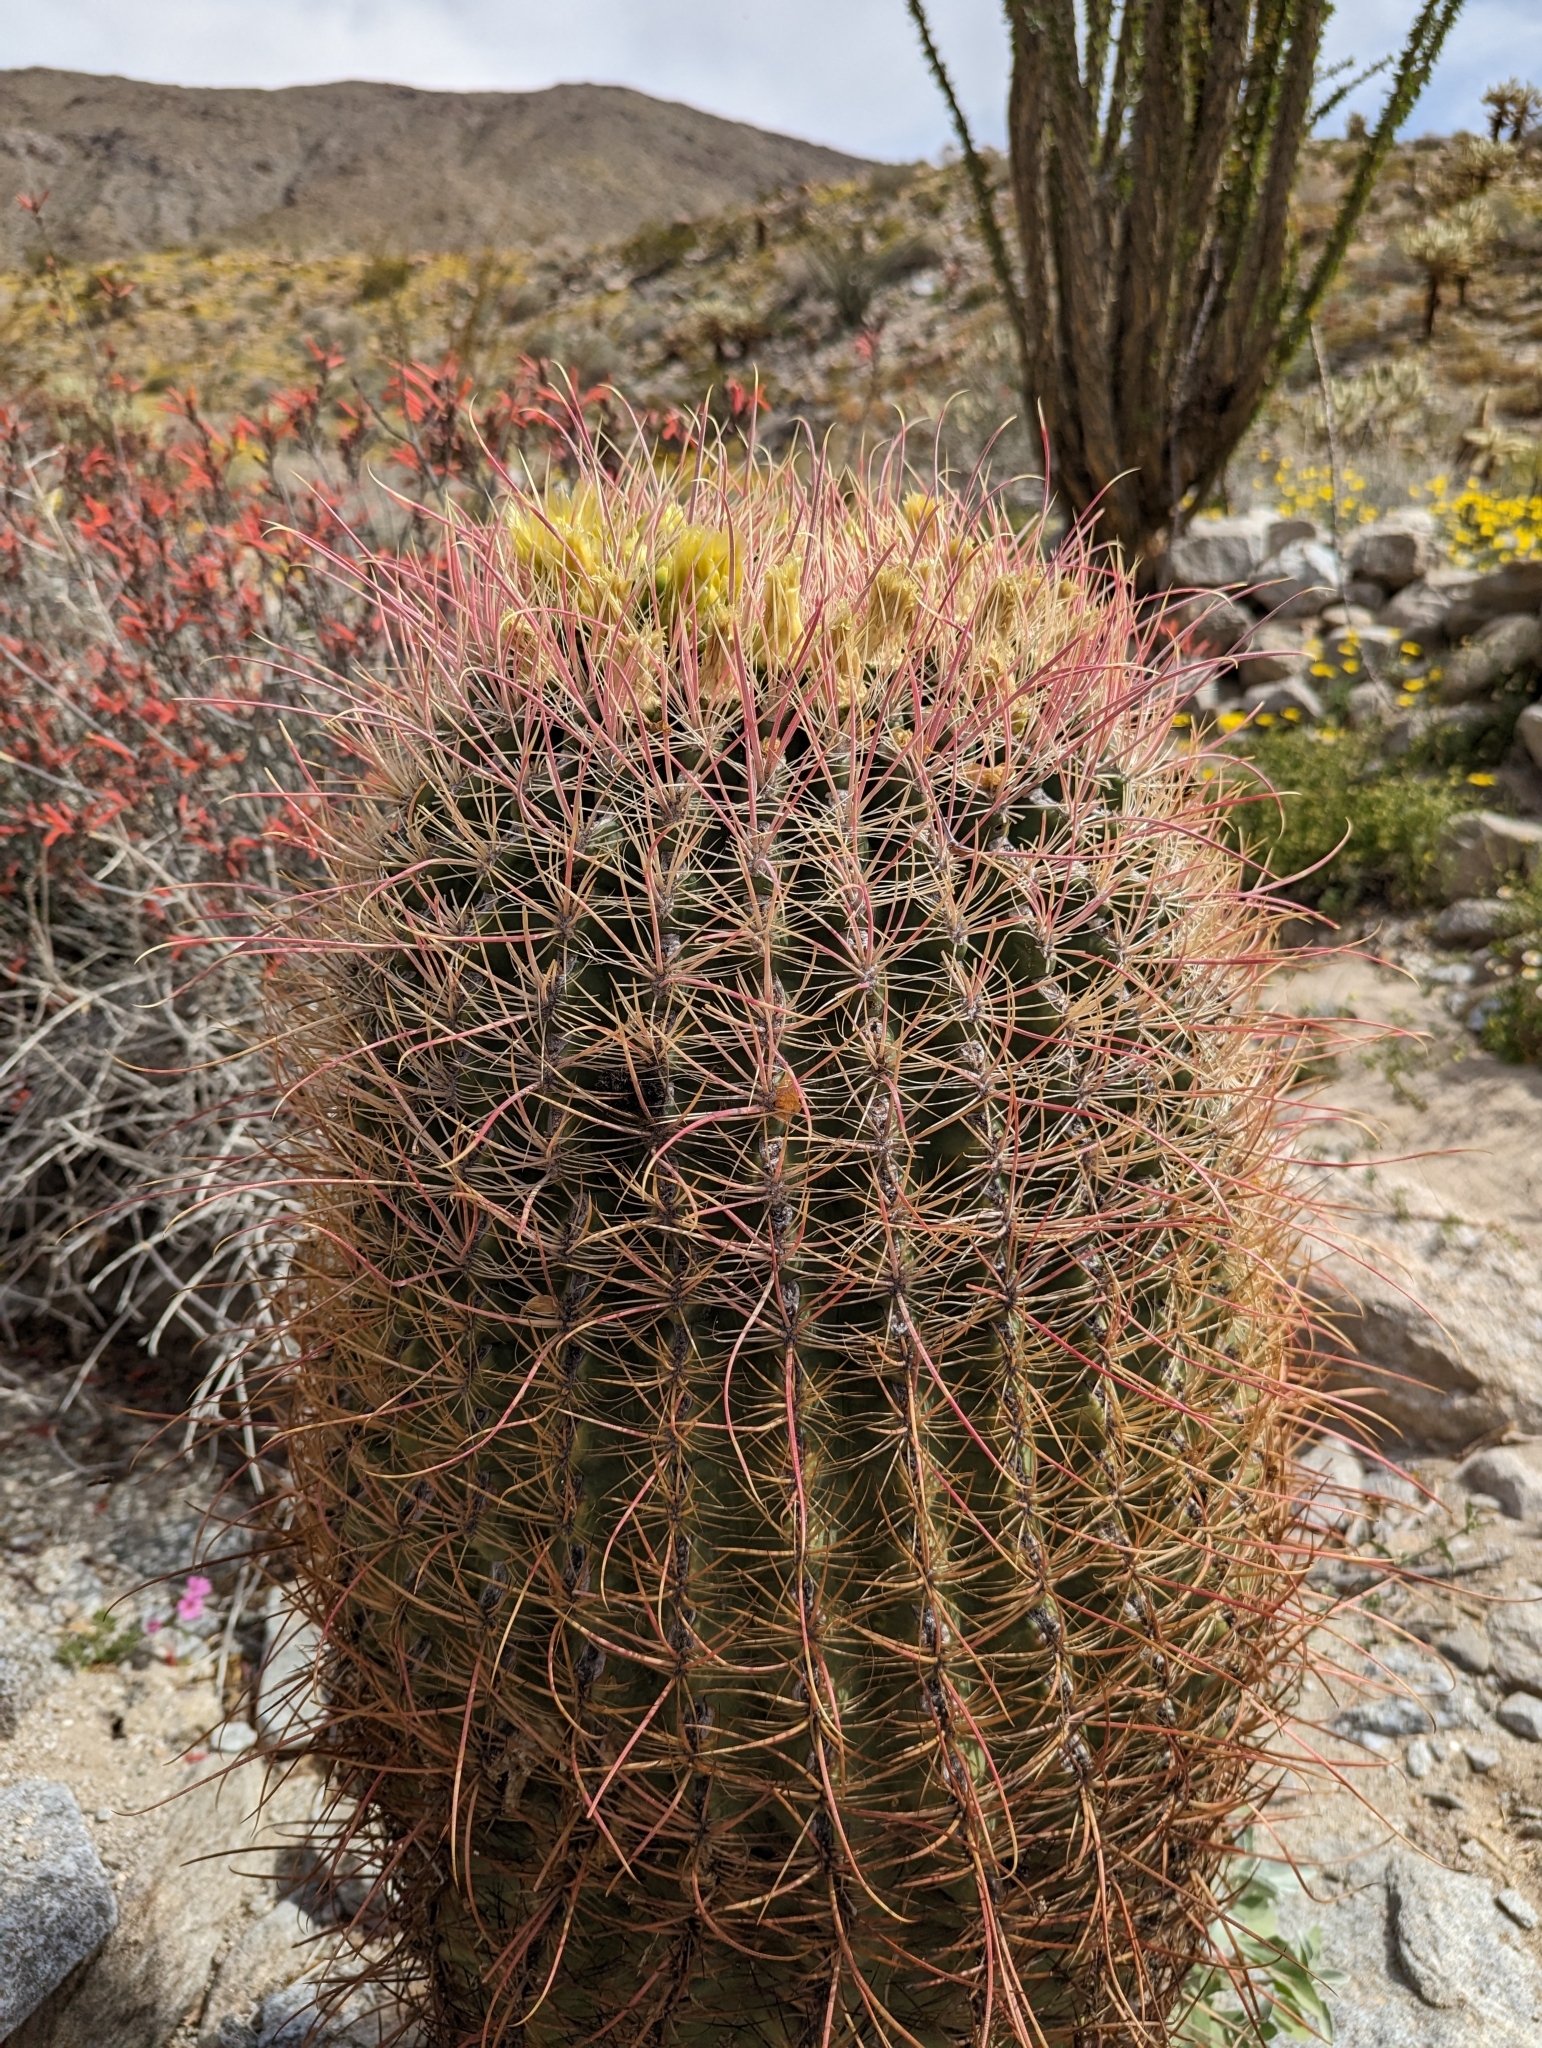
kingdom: Plantae
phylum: Tracheophyta
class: Magnoliopsida
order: Caryophyllales
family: Cactaceae
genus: Ferocactus
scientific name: Ferocactus cylindraceus
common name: California barrel cactus
